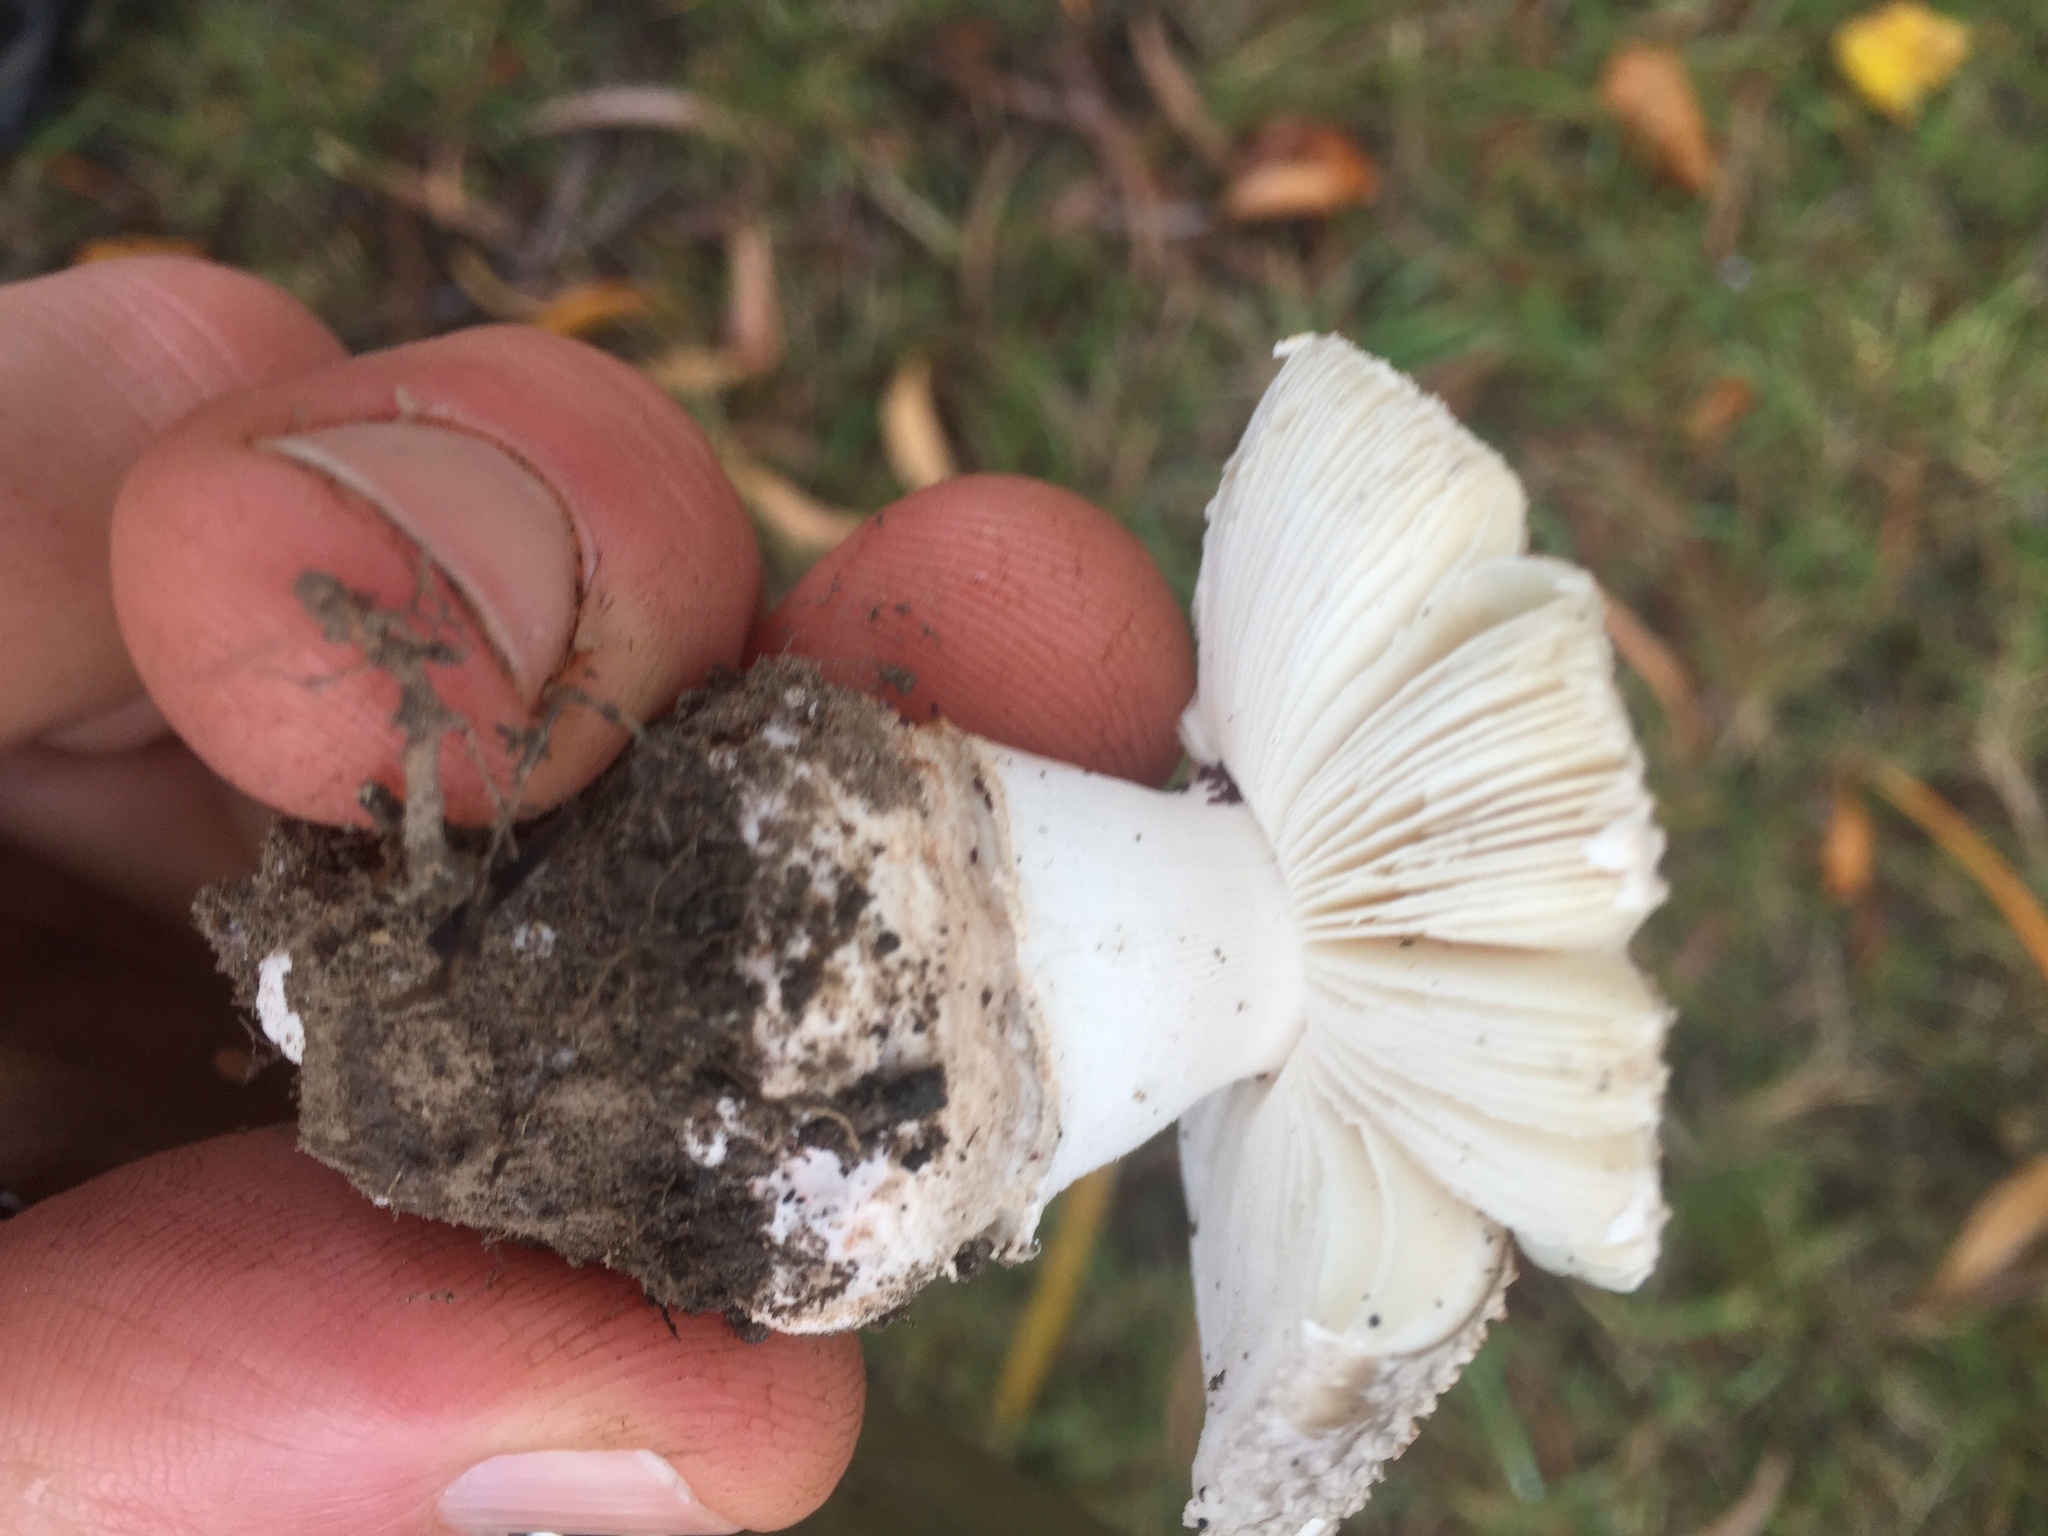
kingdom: Fungi
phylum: Basidiomycota
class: Agaricomycetes
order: Agaricales
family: Amanitaceae
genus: Amanita
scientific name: Amanita excelsa
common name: European false blusher
